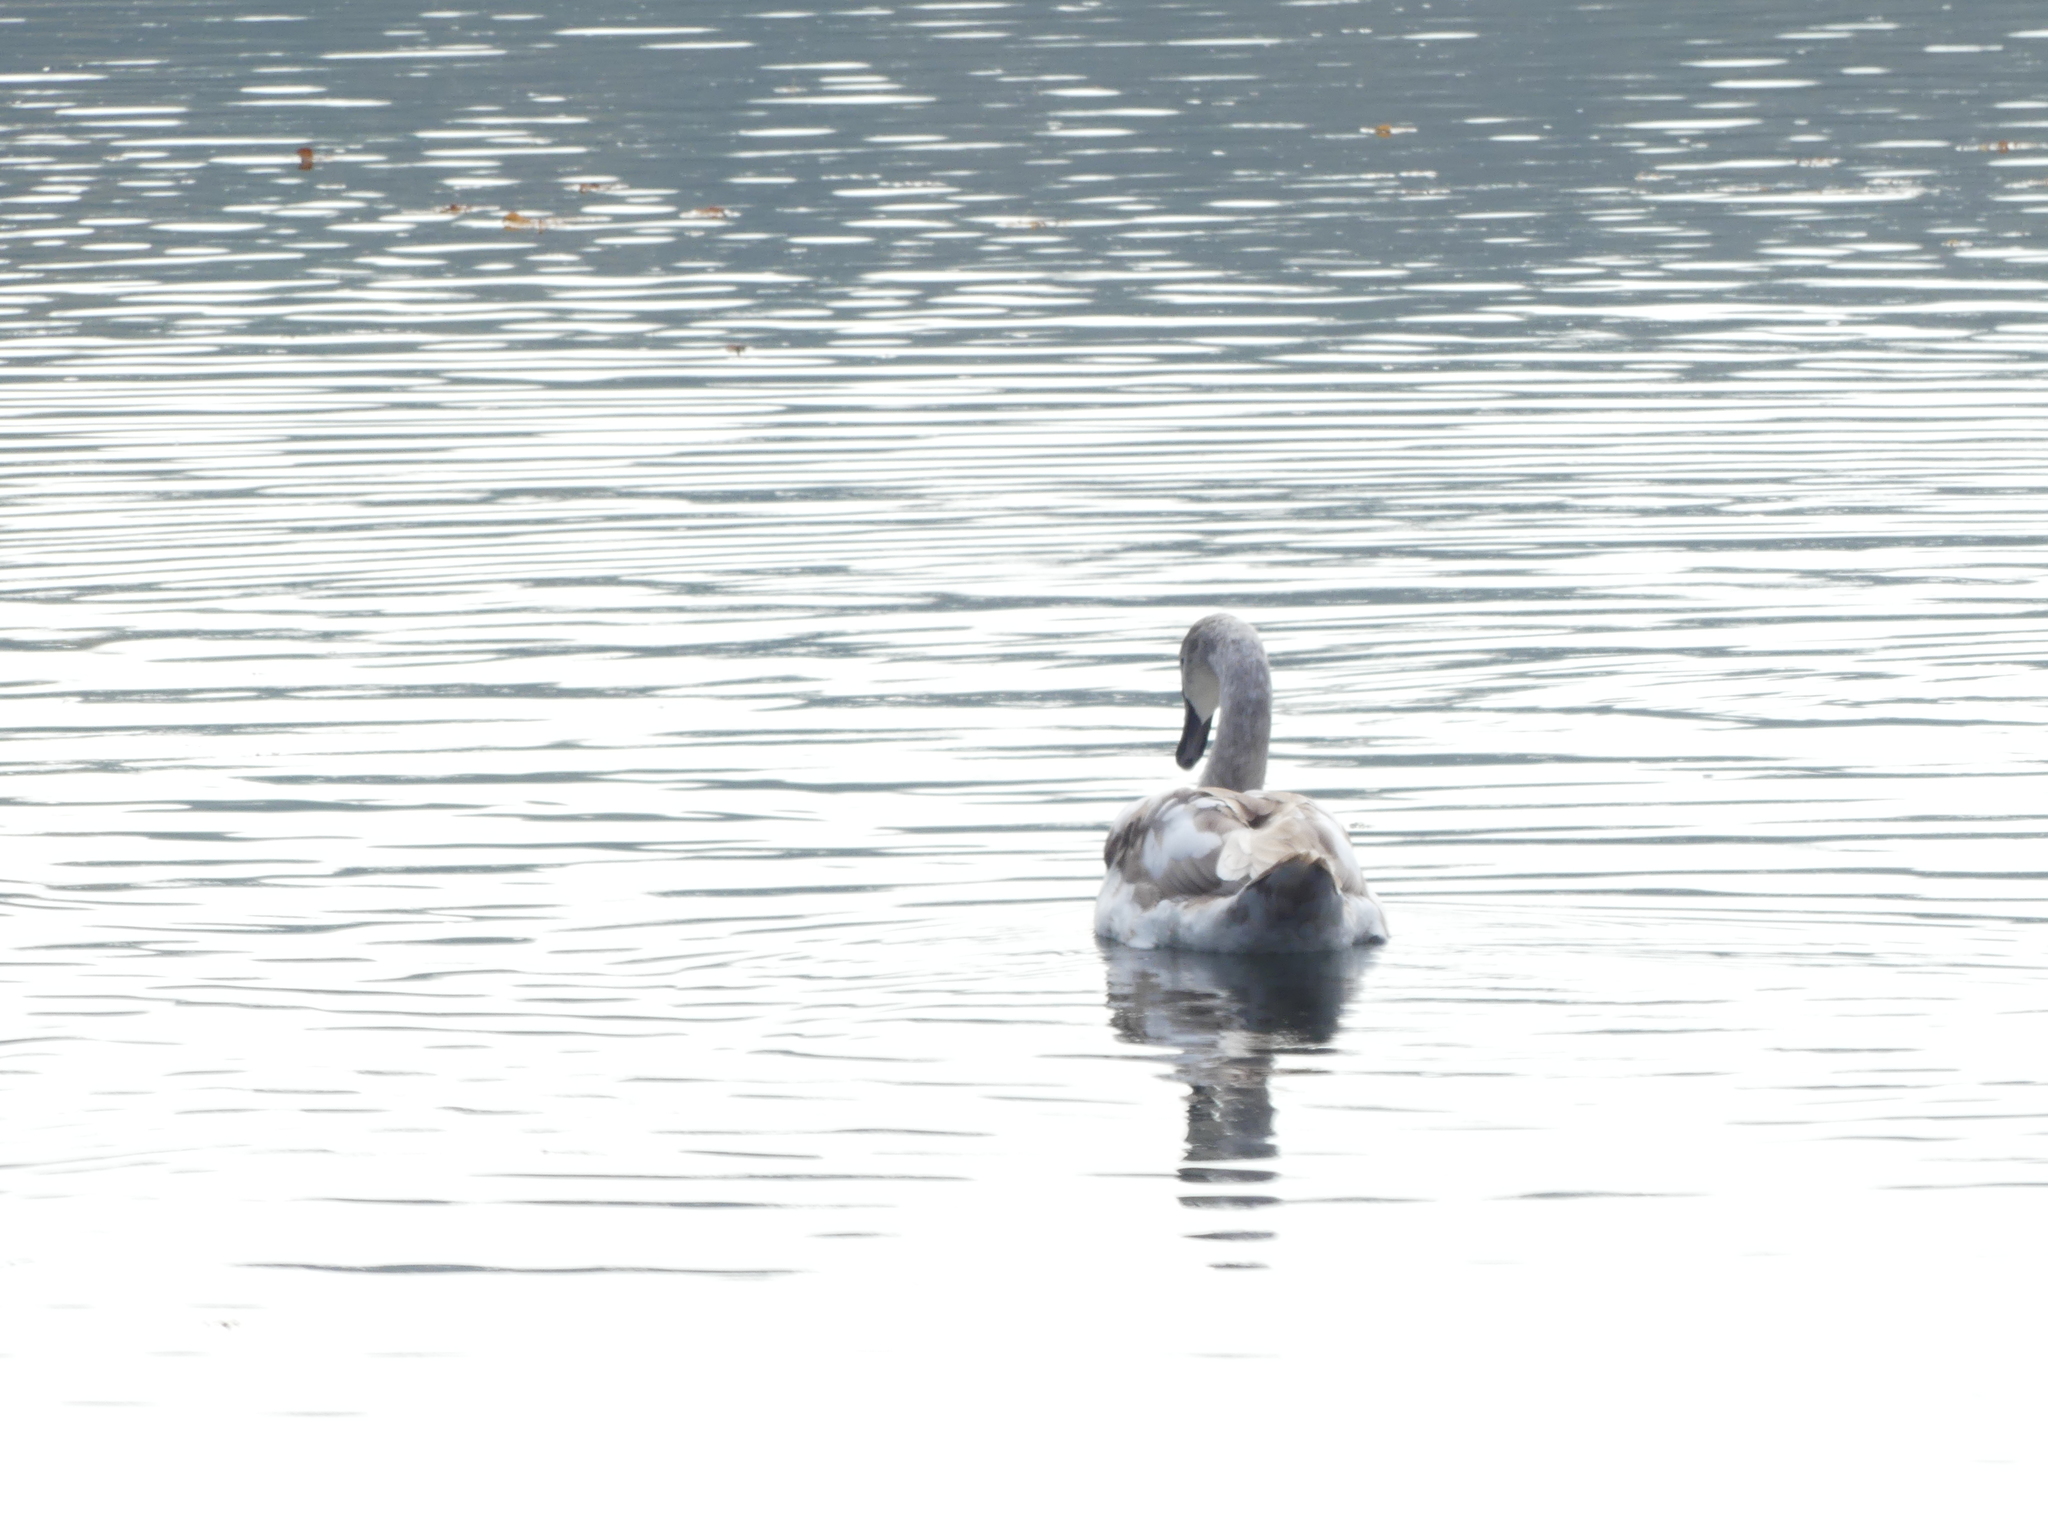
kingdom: Animalia
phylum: Chordata
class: Aves
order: Anseriformes
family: Anatidae
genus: Cygnus
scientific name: Cygnus olor
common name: Mute swan
